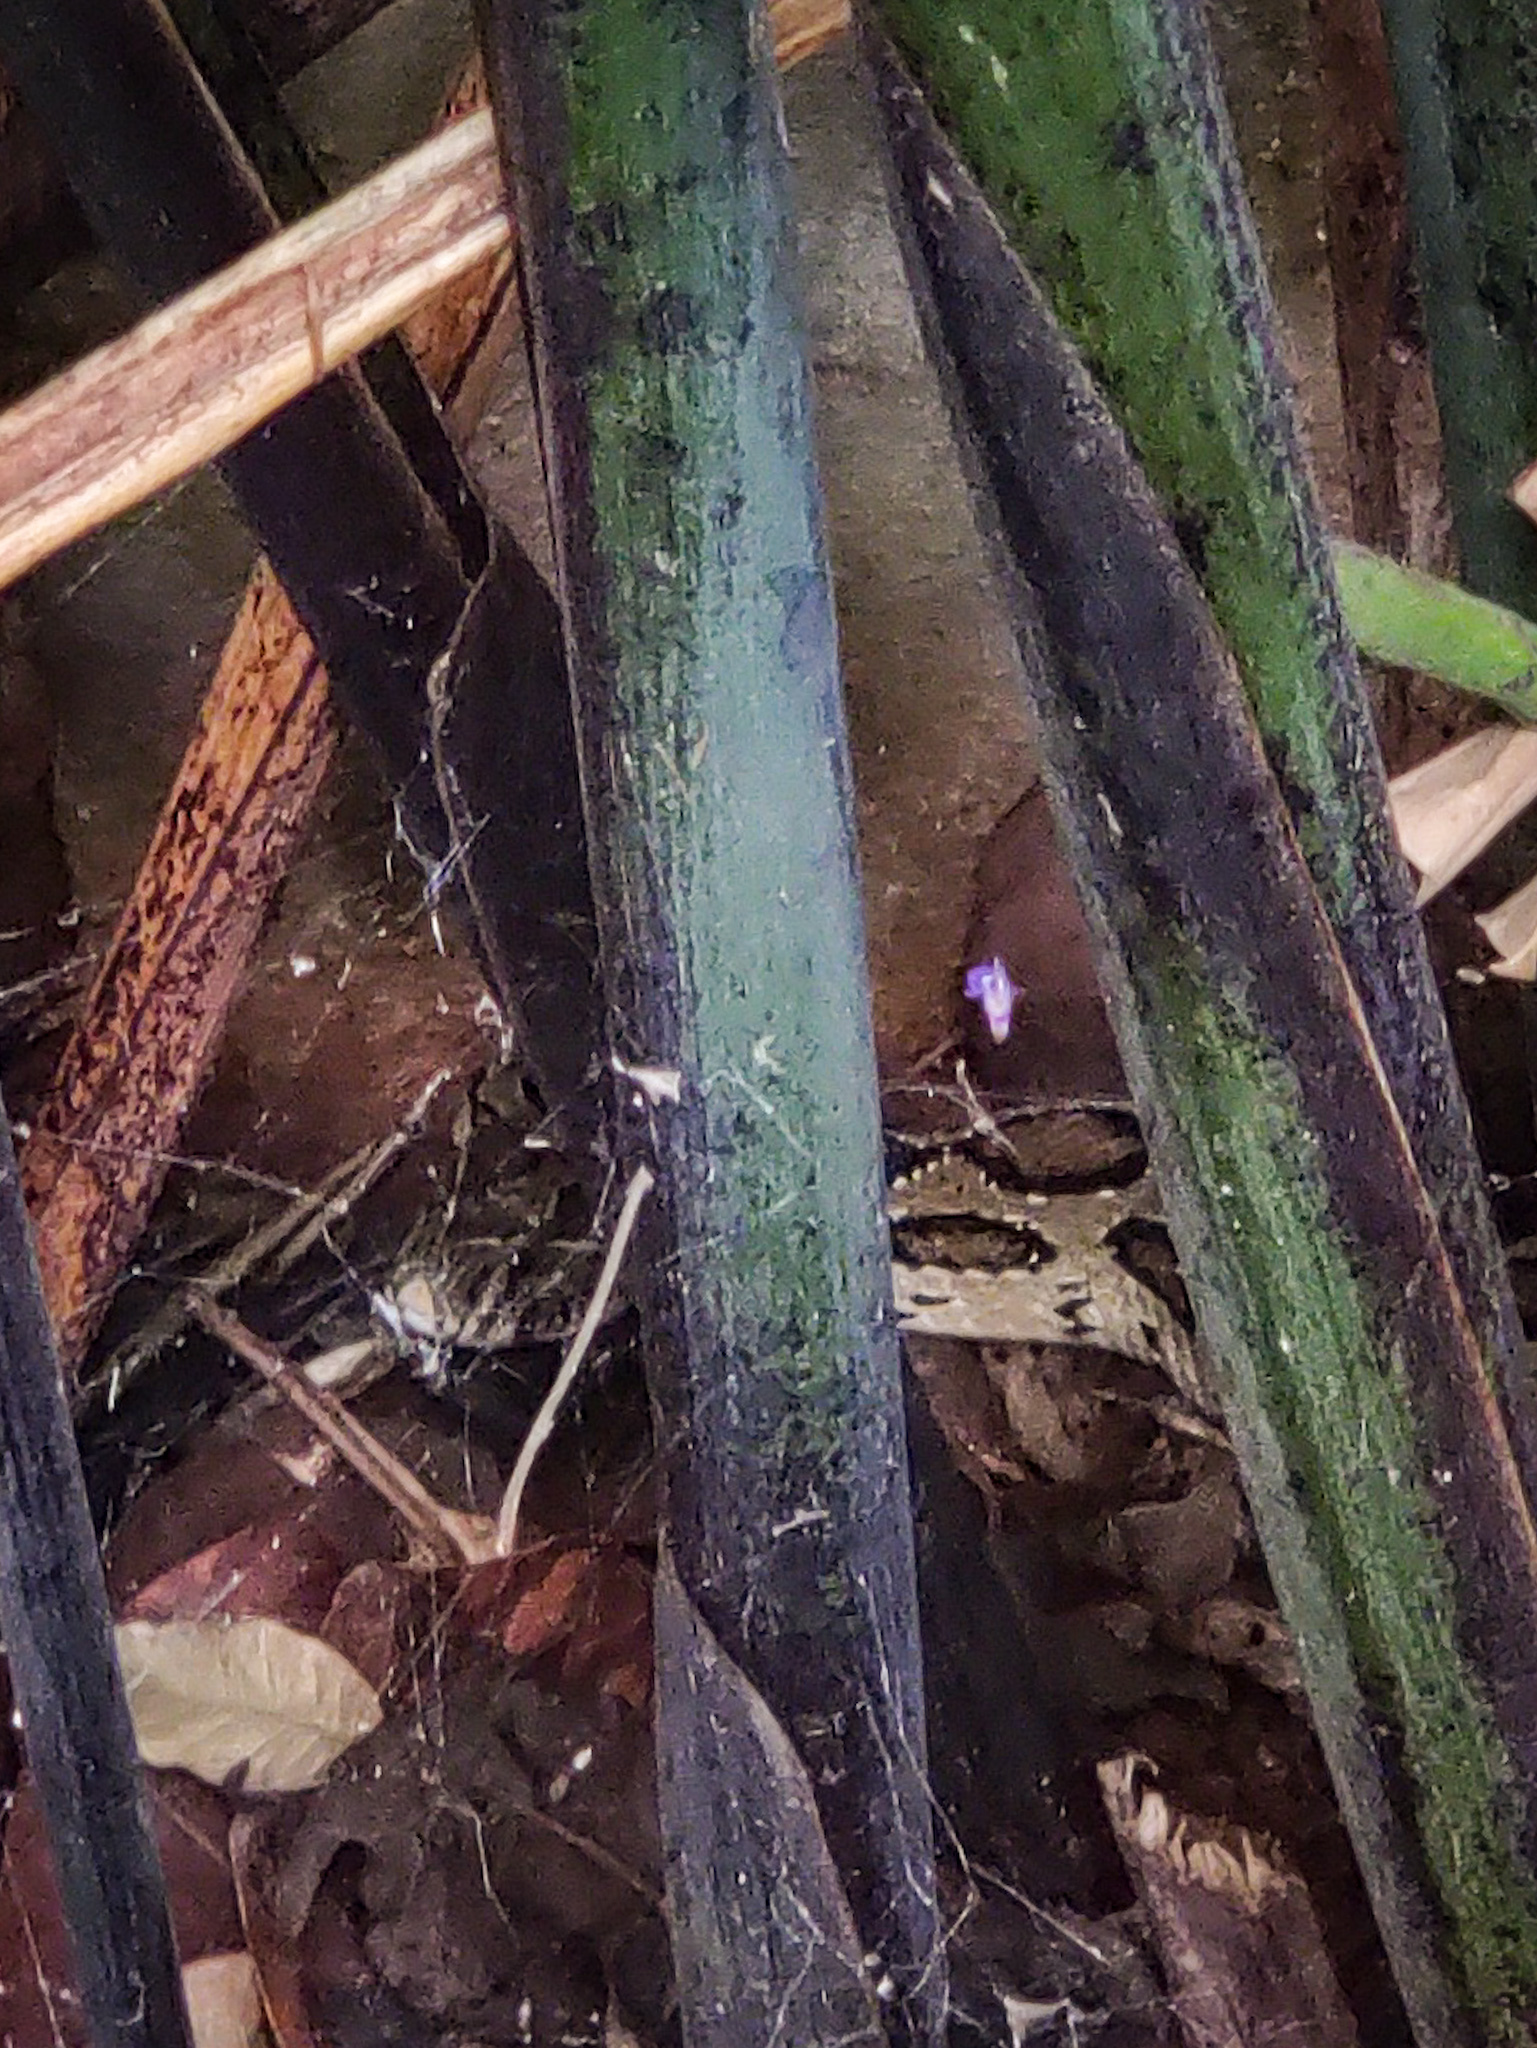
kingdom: Animalia
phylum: Chordata
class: Squamata
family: Viperidae
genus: Daboia
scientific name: Daboia russelii
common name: Western russel’s viper
